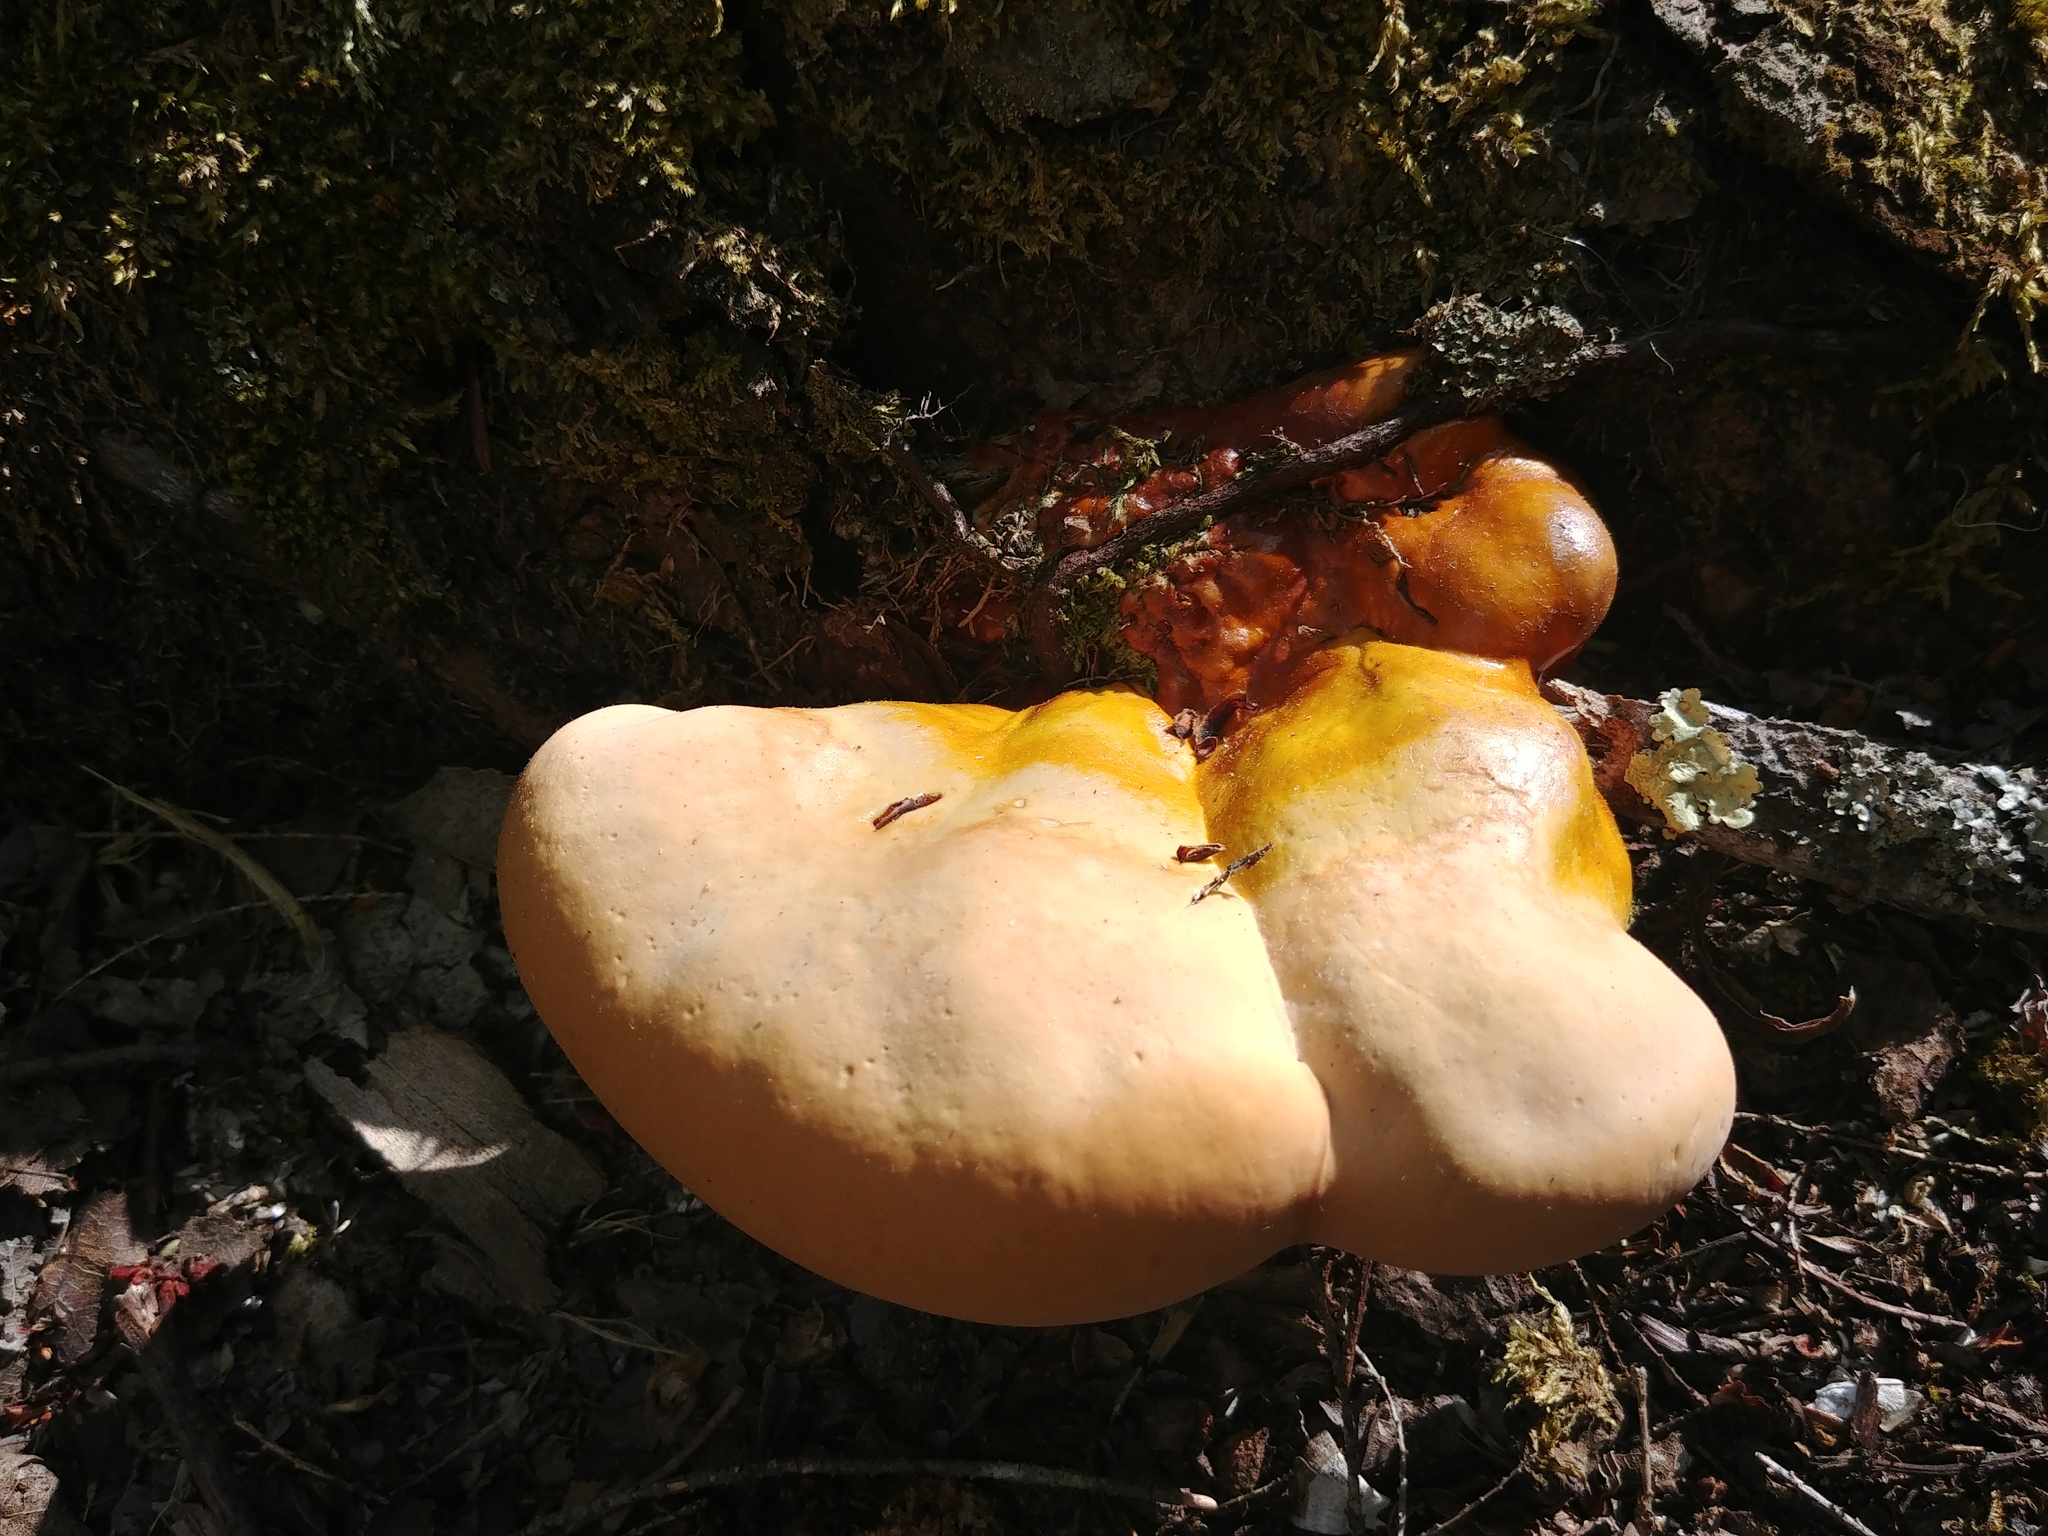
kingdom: Fungi
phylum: Basidiomycota
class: Agaricomycetes
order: Polyporales
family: Polyporaceae
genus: Ganoderma
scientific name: Ganoderma tsugae
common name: Hemlock varnish shelf
